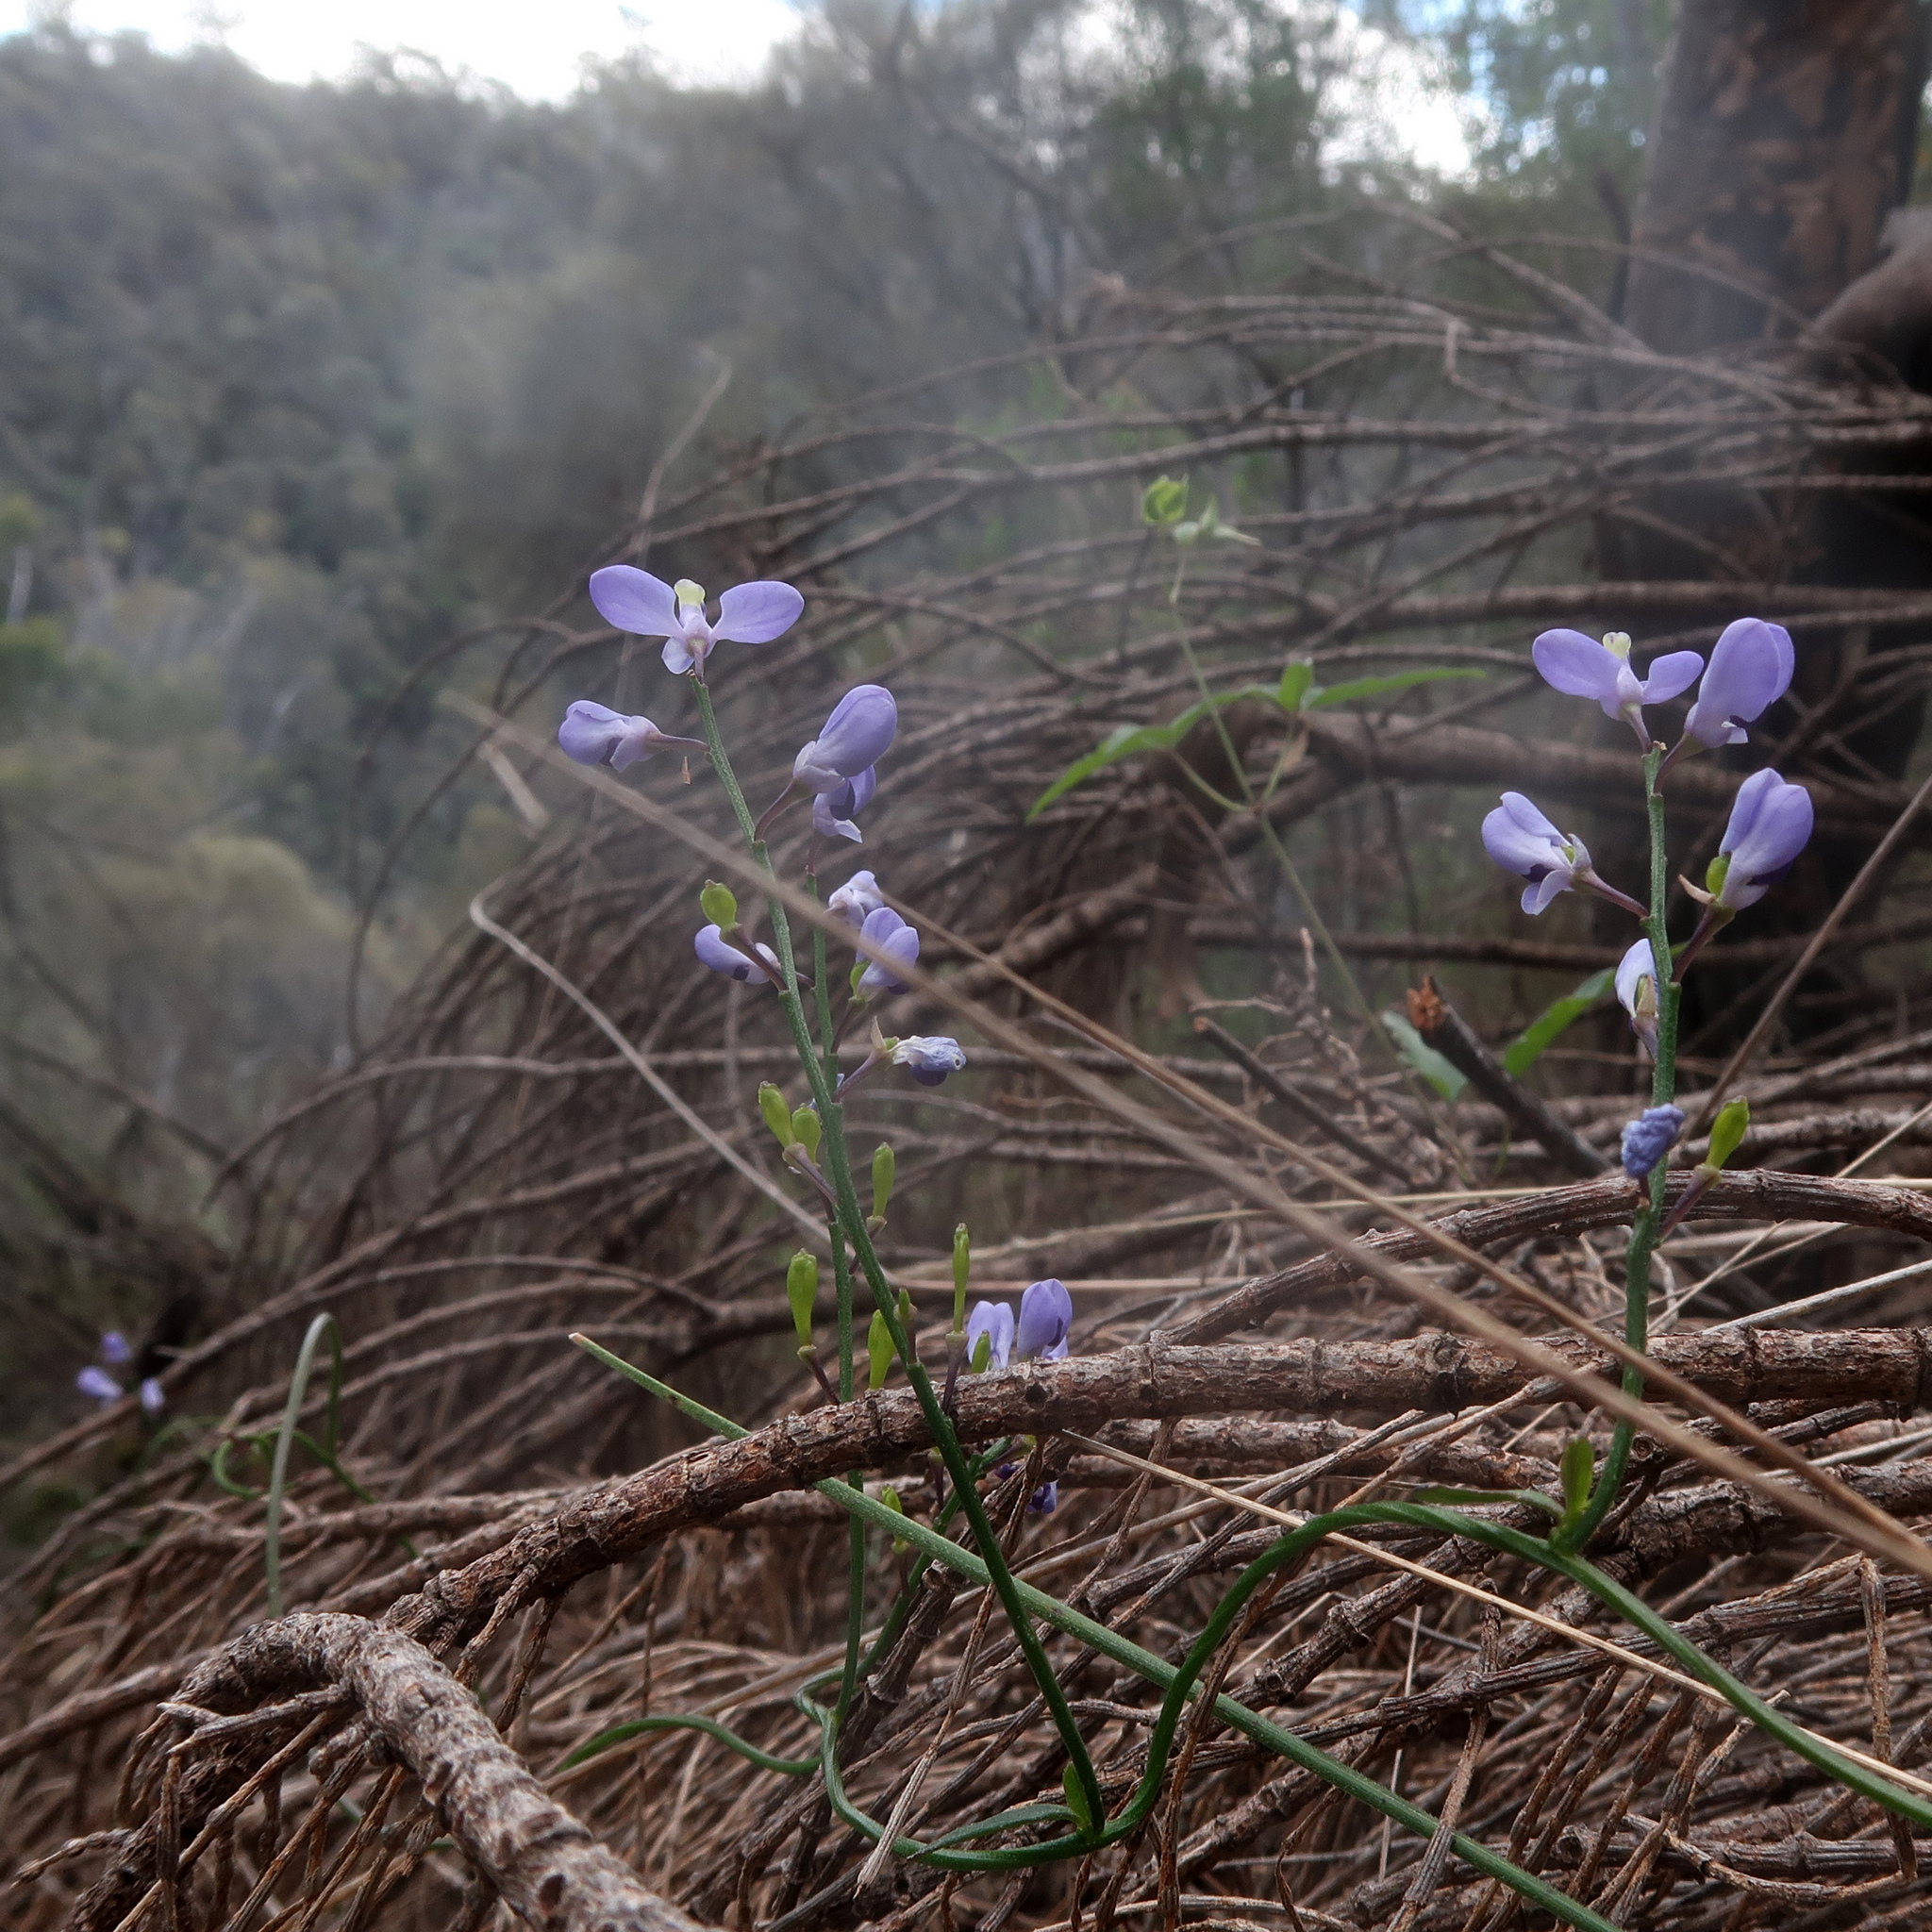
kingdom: Plantae
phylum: Tracheophyta
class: Magnoliopsida
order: Fabales
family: Polygalaceae
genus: Comesperma
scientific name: Comesperma volubile
